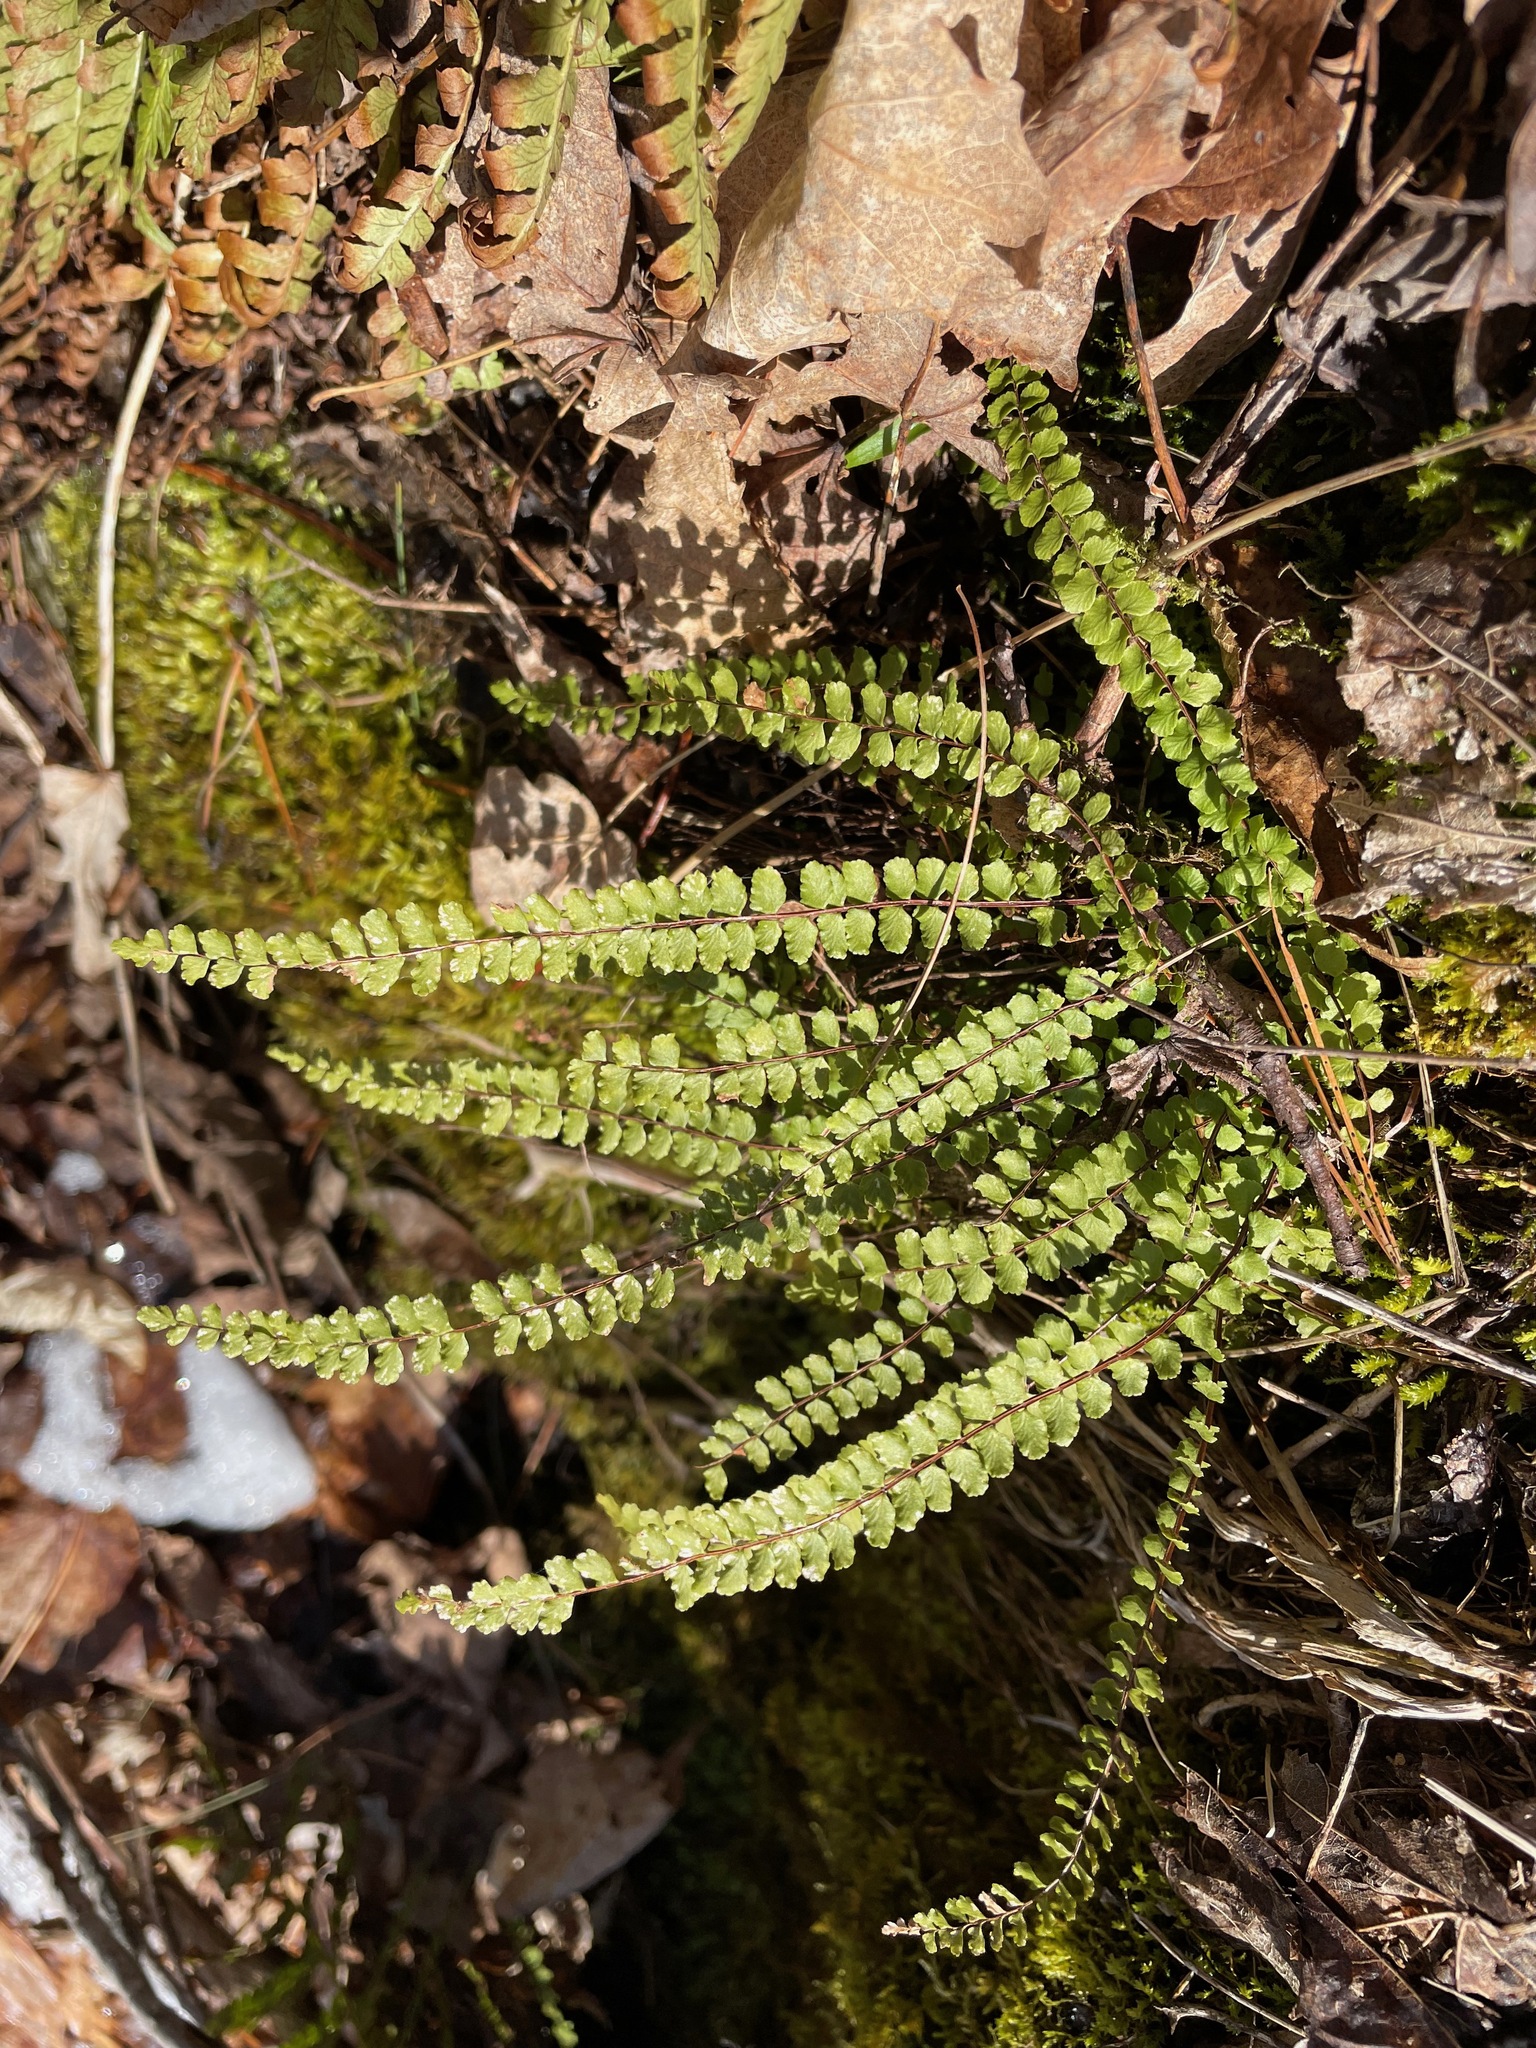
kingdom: Plantae
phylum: Tracheophyta
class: Polypodiopsida
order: Polypodiales
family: Aspleniaceae
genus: Asplenium
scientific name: Asplenium trichomanes
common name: Maidenhair spleenwort
